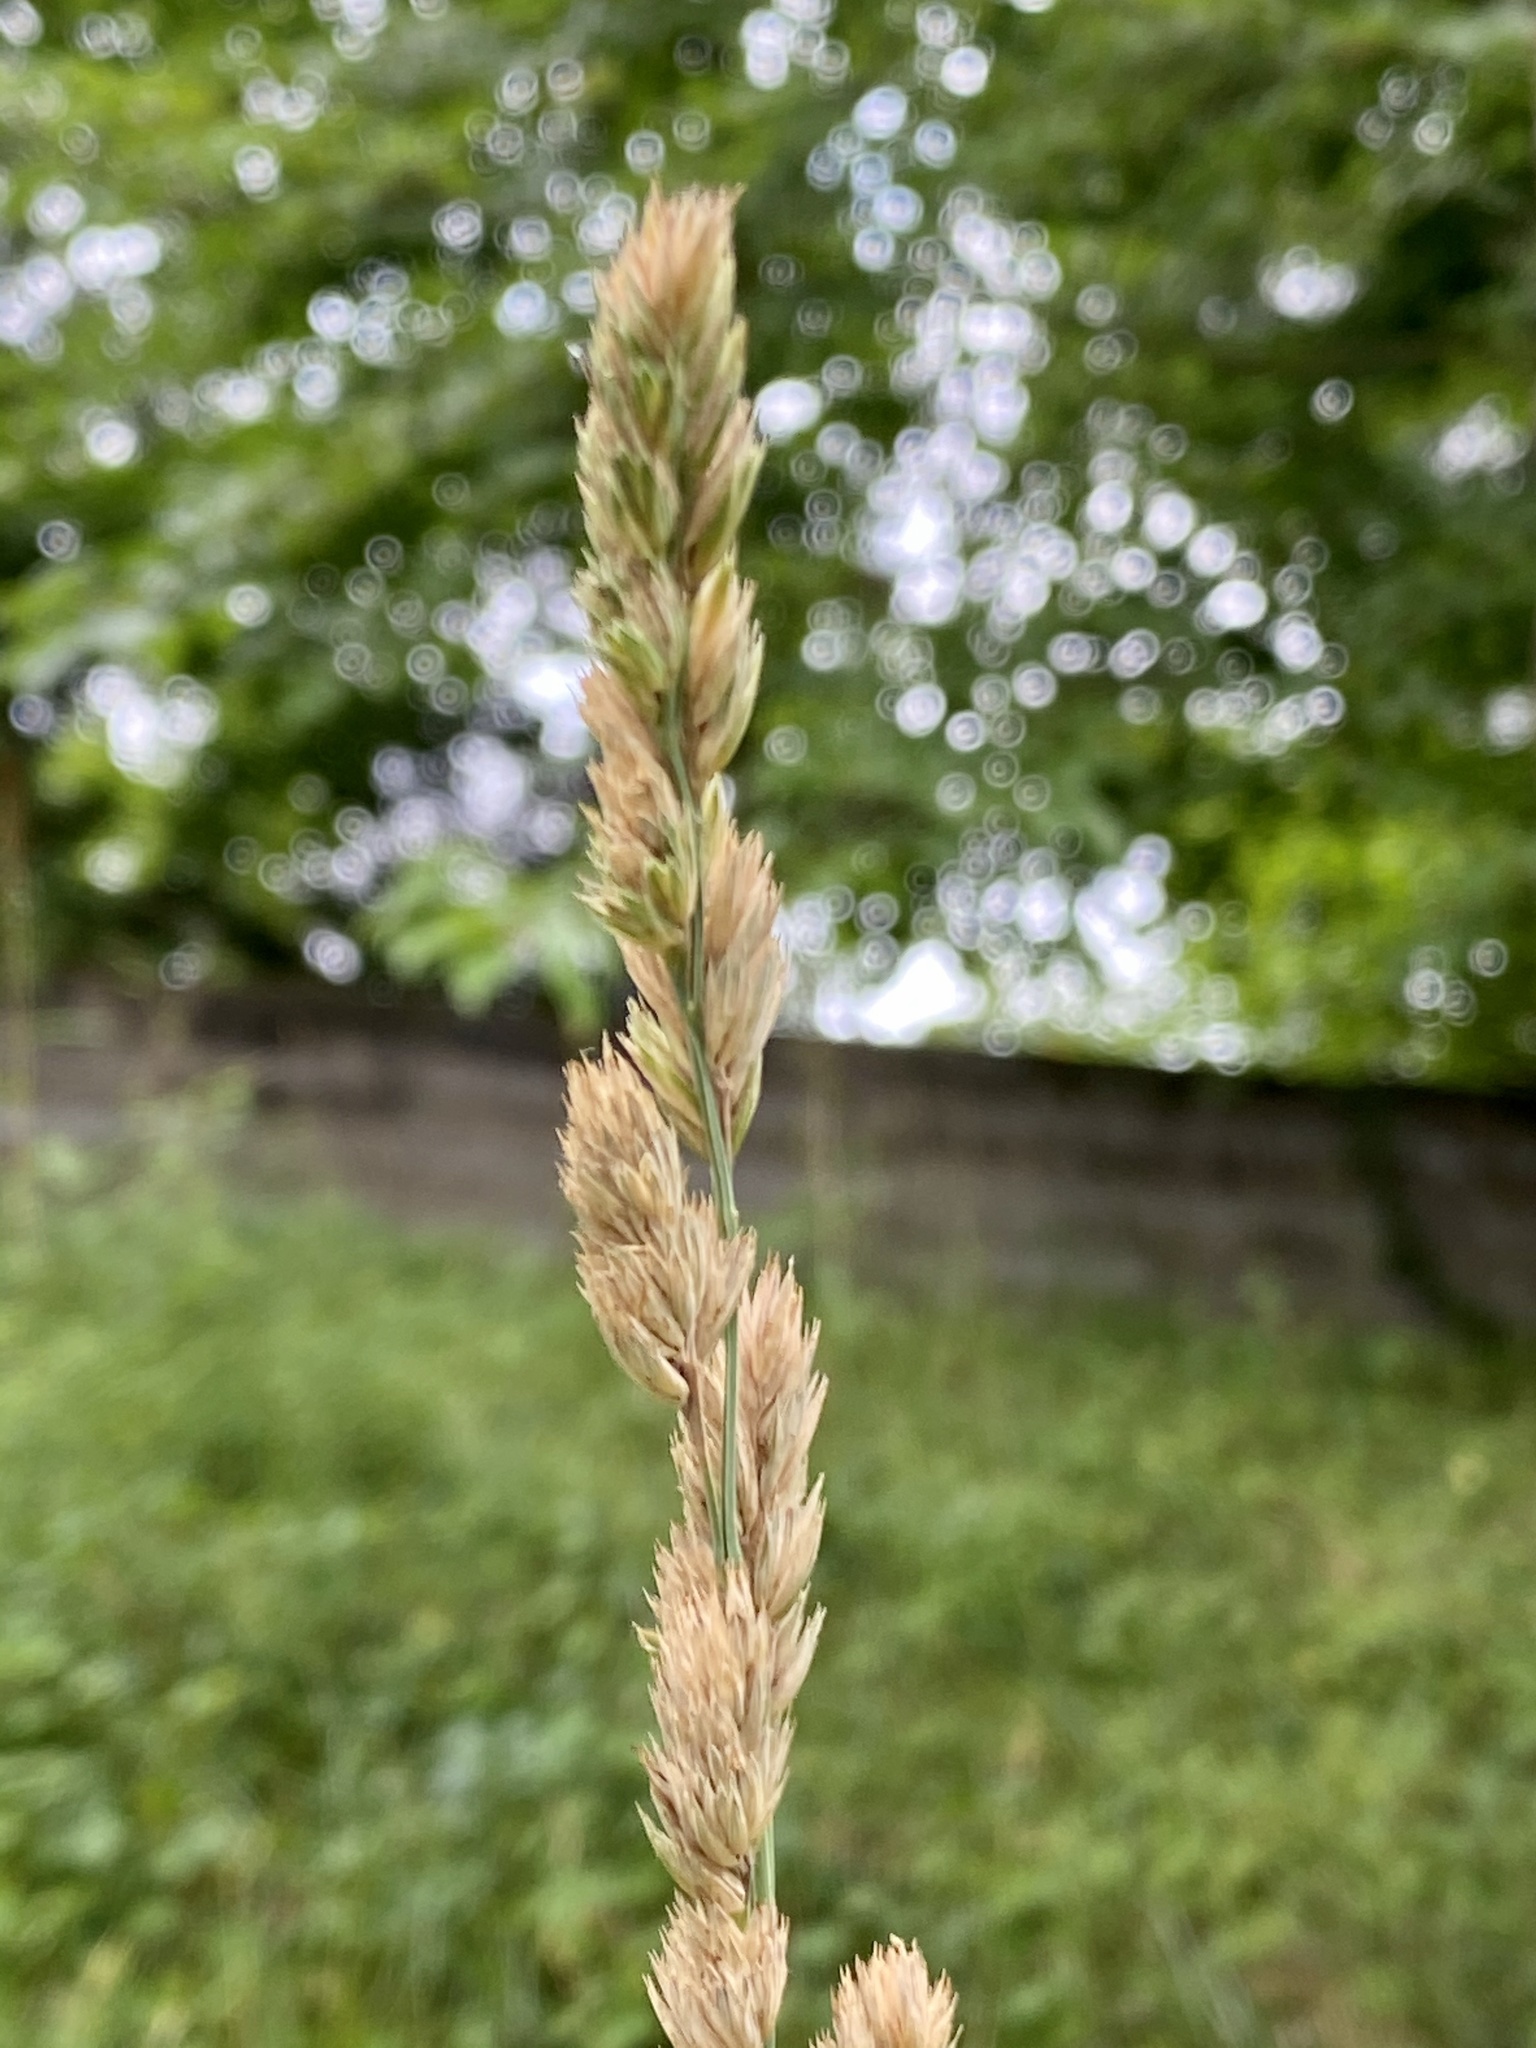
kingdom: Plantae
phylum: Tracheophyta
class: Liliopsida
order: Poales
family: Poaceae
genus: Dactylis
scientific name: Dactylis glomerata
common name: Orchardgrass
